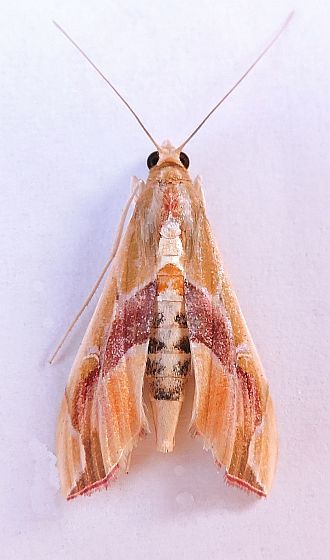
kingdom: Animalia
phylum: Arthropoda
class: Insecta
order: Lepidoptera
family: Crambidae
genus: Agathodes
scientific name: Agathodes monstralis
